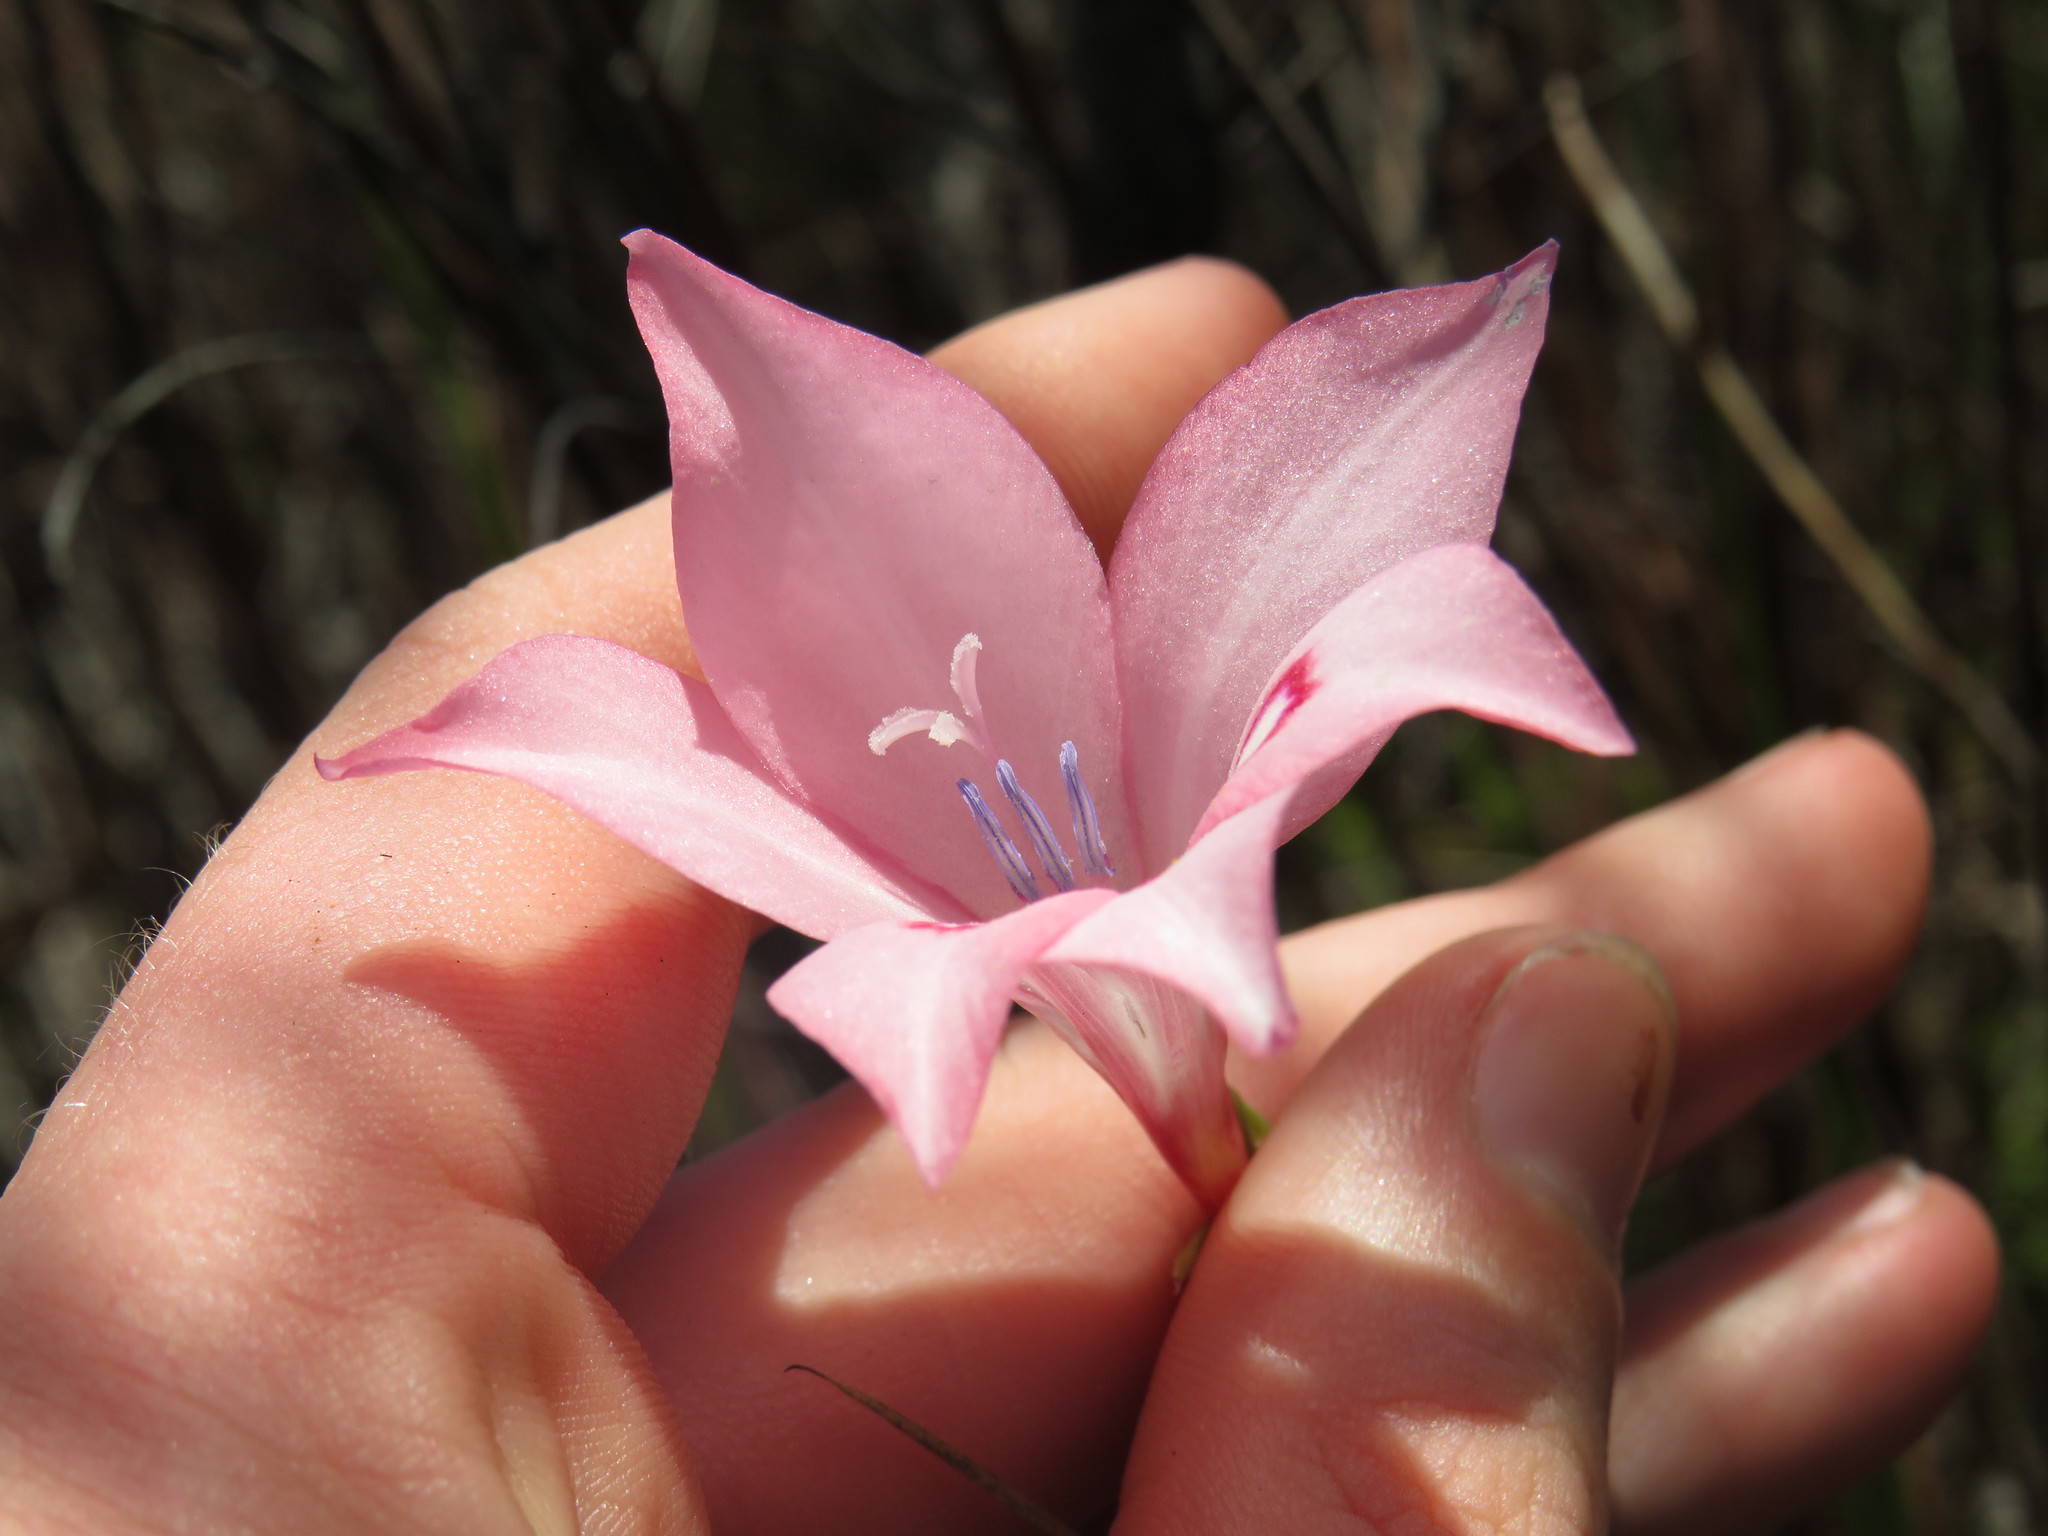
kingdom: Plantae
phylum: Tracheophyta
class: Liliopsida
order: Asparagales
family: Iridaceae
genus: Gladiolus
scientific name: Gladiolus pappei
